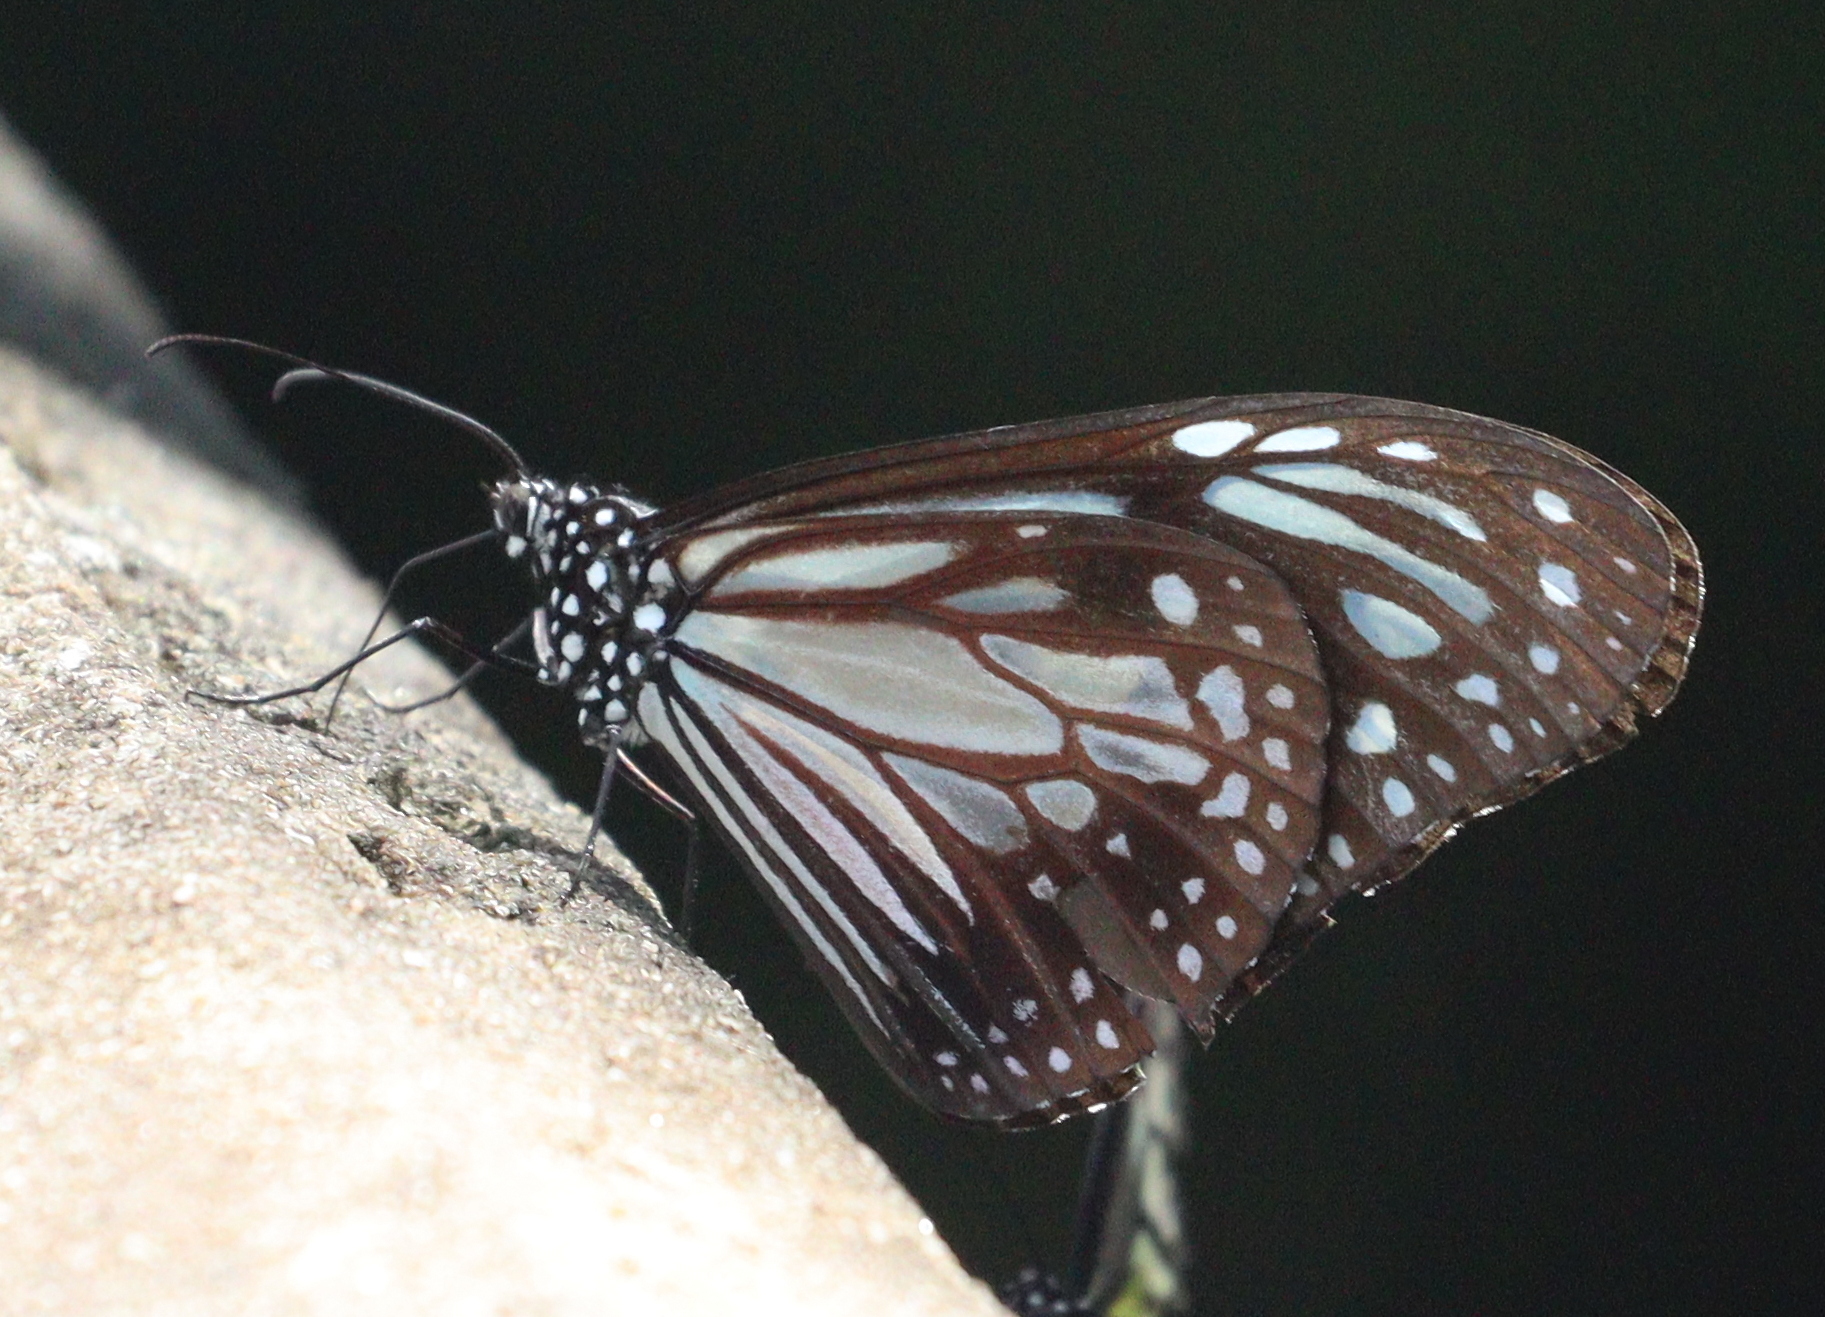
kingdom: Animalia
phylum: Arthropoda
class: Insecta
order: Lepidoptera
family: Nymphalidae
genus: Parantica
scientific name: Parantica melaneus
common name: Chocolate tiger
